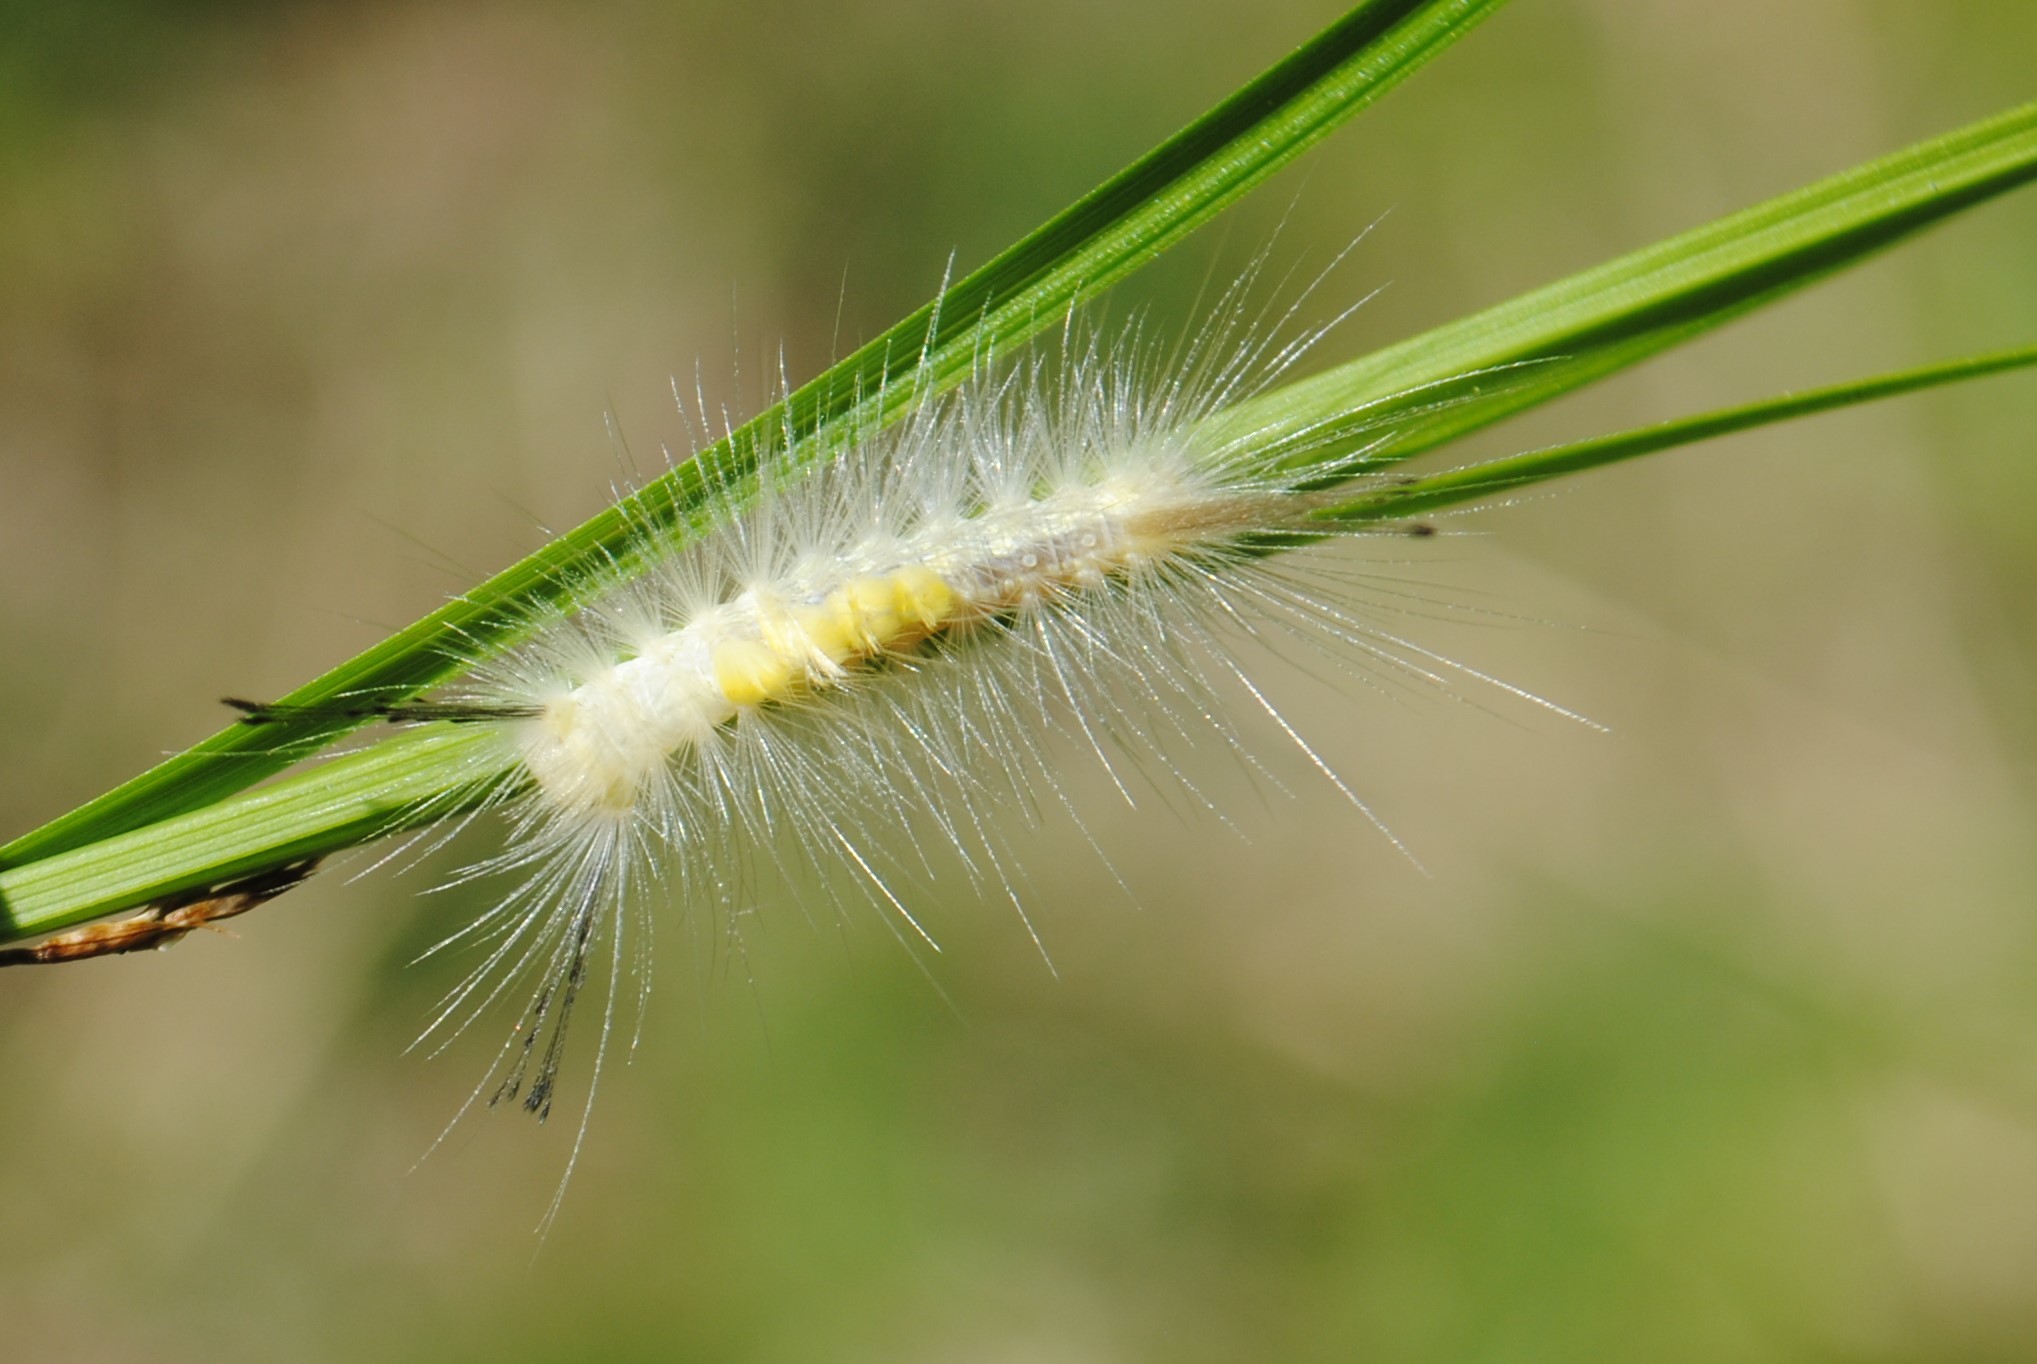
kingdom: Animalia
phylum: Arthropoda
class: Insecta
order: Lepidoptera
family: Erebidae
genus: Orgyia
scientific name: Orgyia definita
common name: Definite tussock moth
